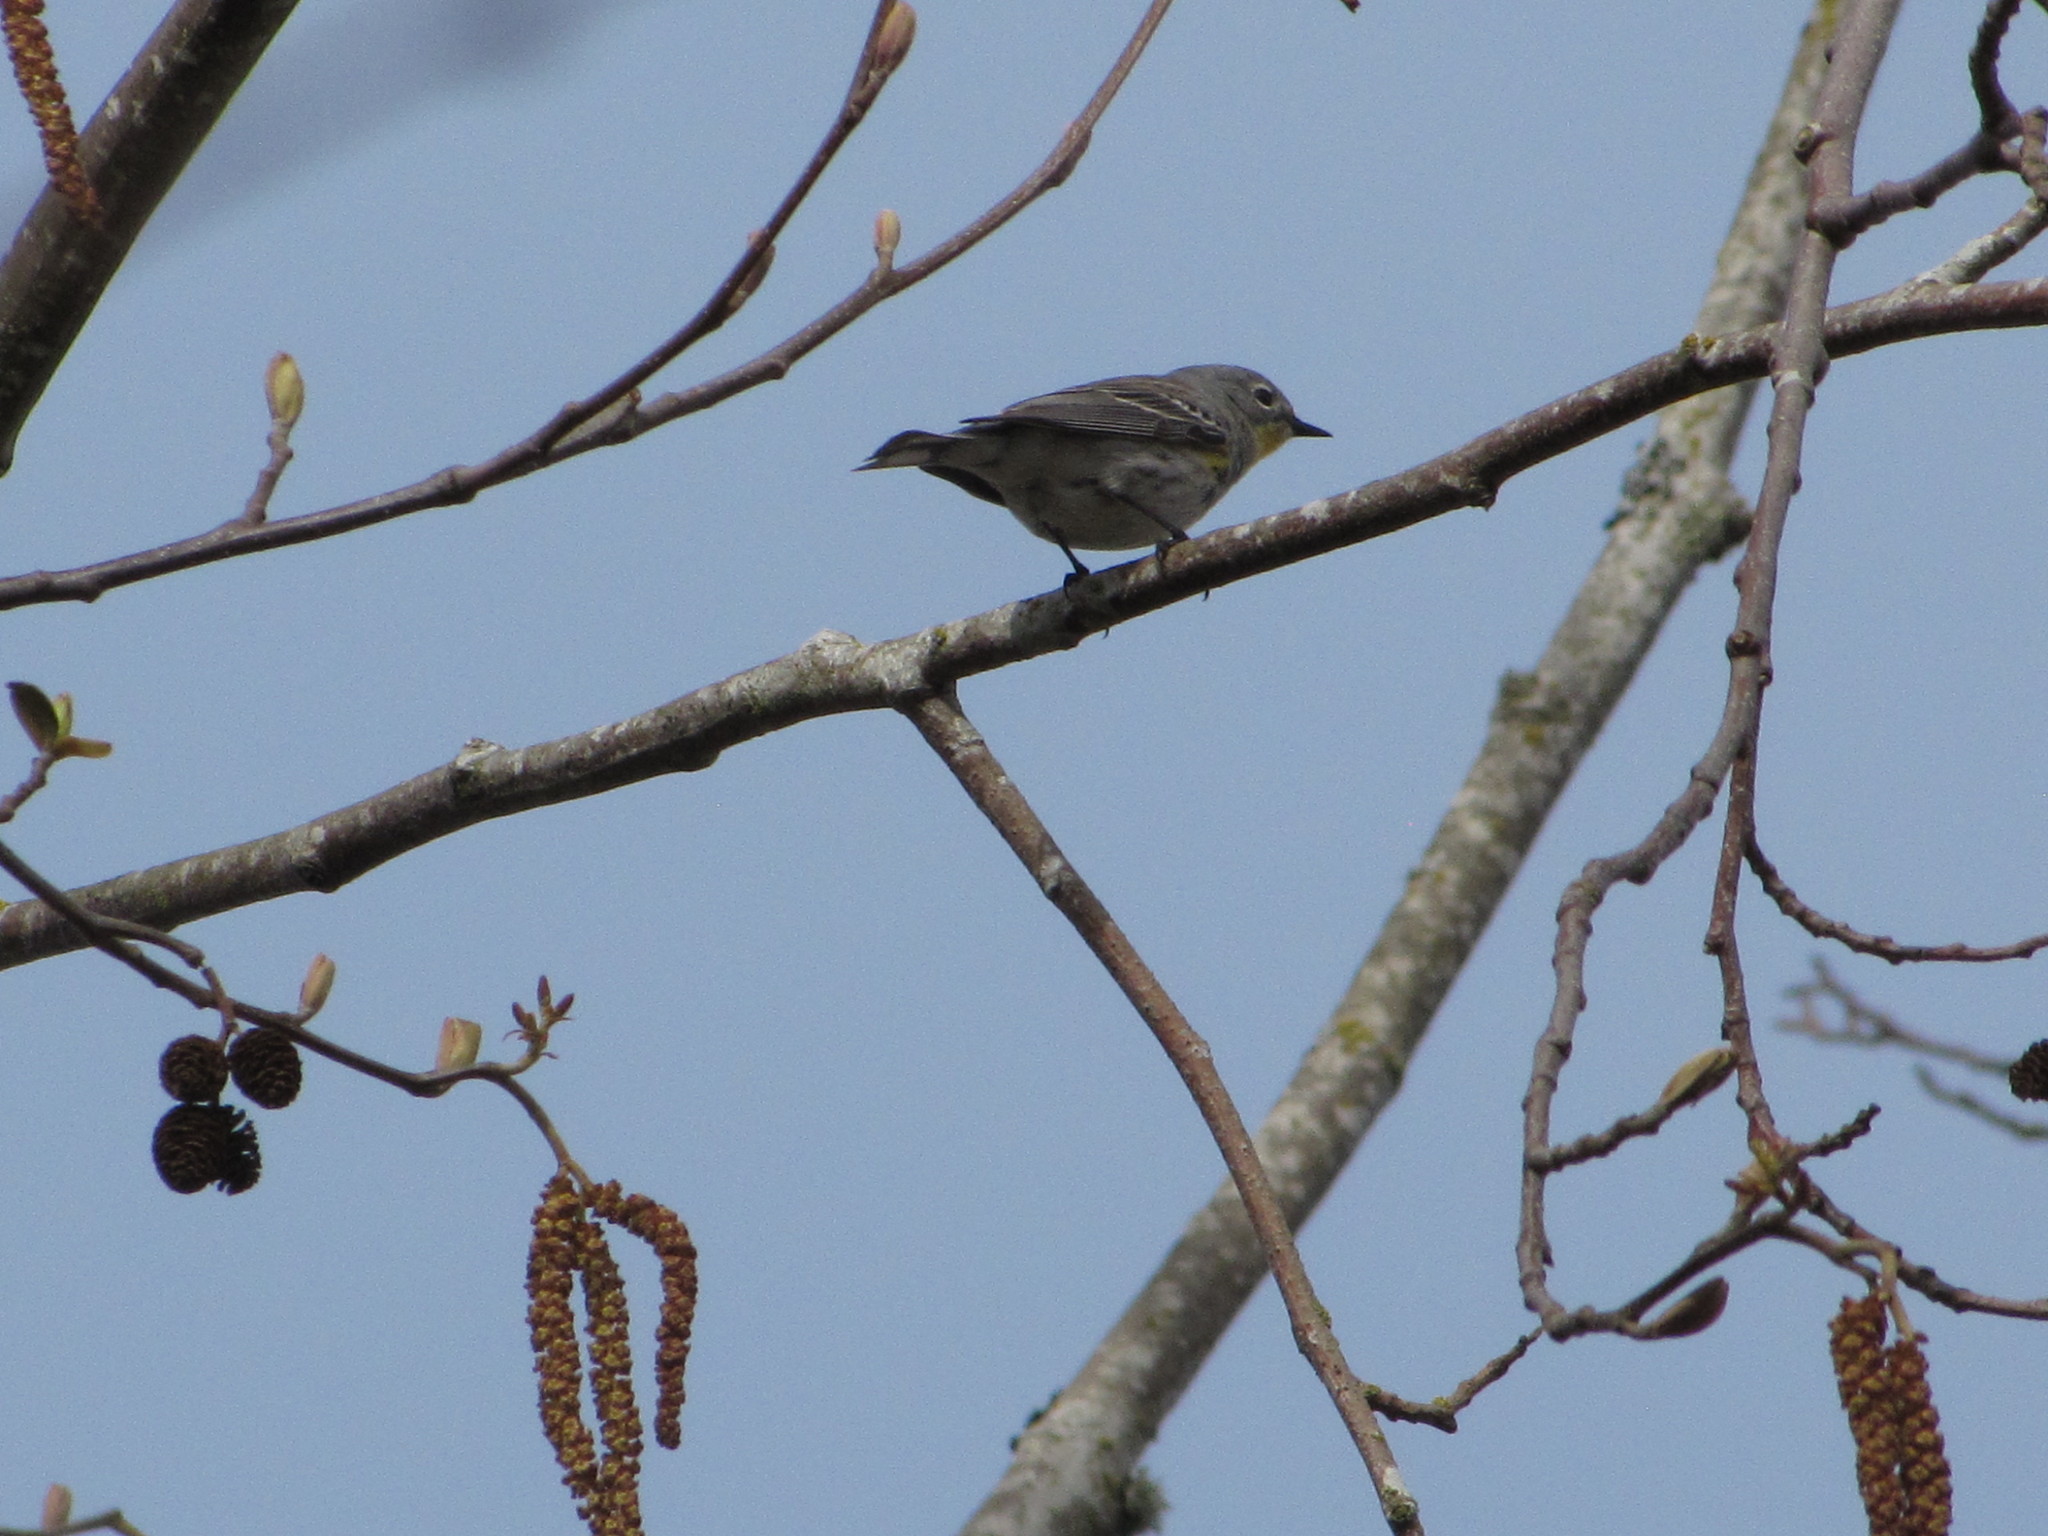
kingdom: Animalia
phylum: Chordata
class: Aves
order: Passeriformes
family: Parulidae
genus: Setophaga
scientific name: Setophaga auduboni
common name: Audubon's warbler
